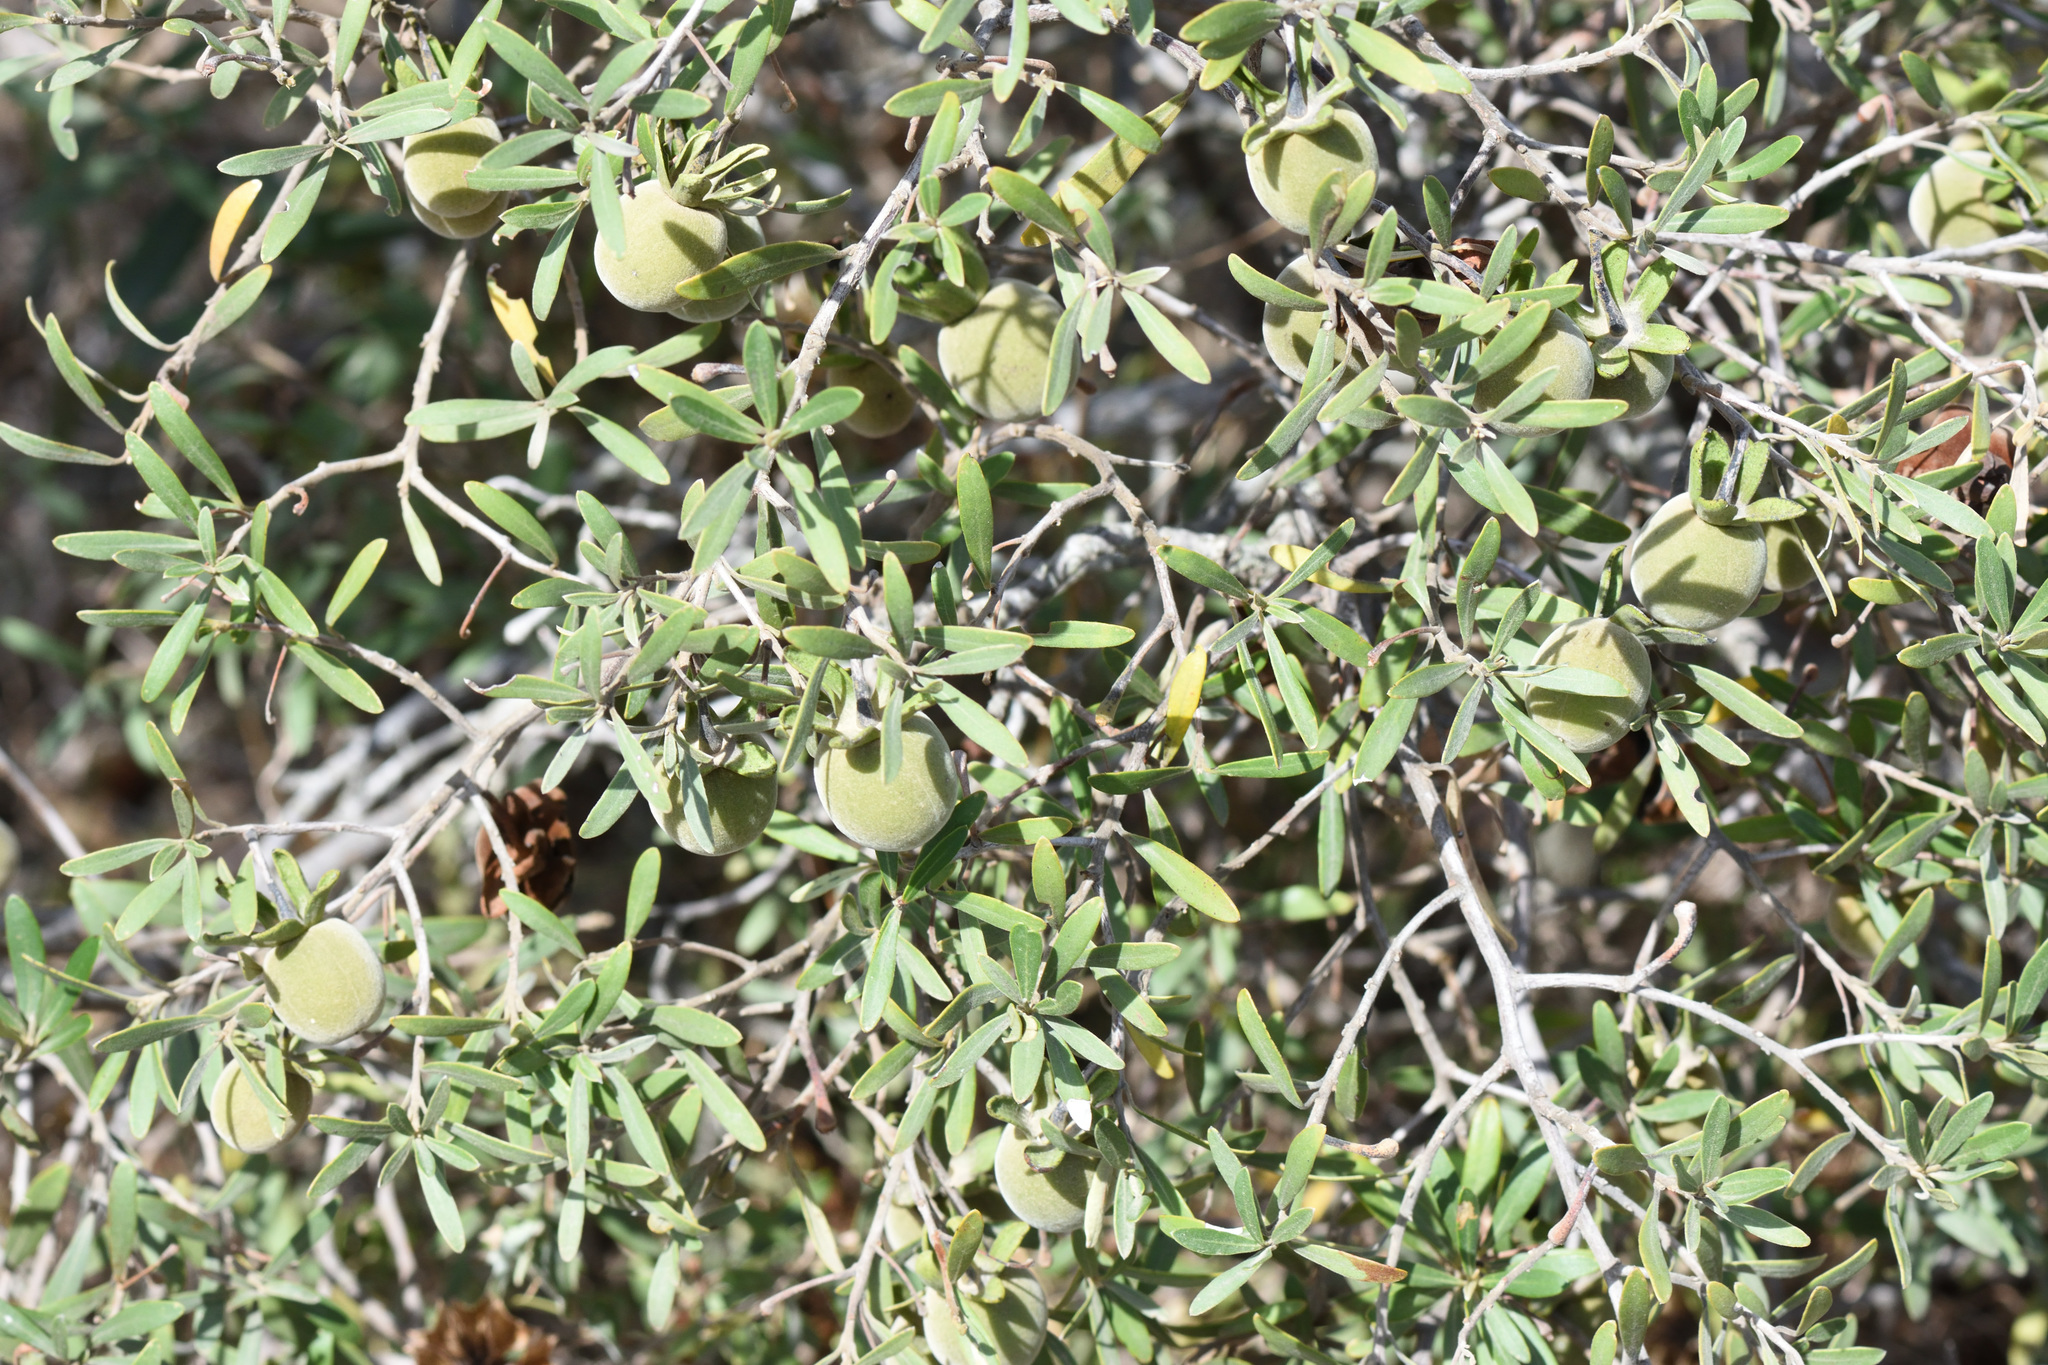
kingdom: Plantae
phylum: Tracheophyta
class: Magnoliopsida
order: Ericales
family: Ebenaceae
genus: Diospyros
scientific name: Diospyros dichrophylla
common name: Common star-apple
